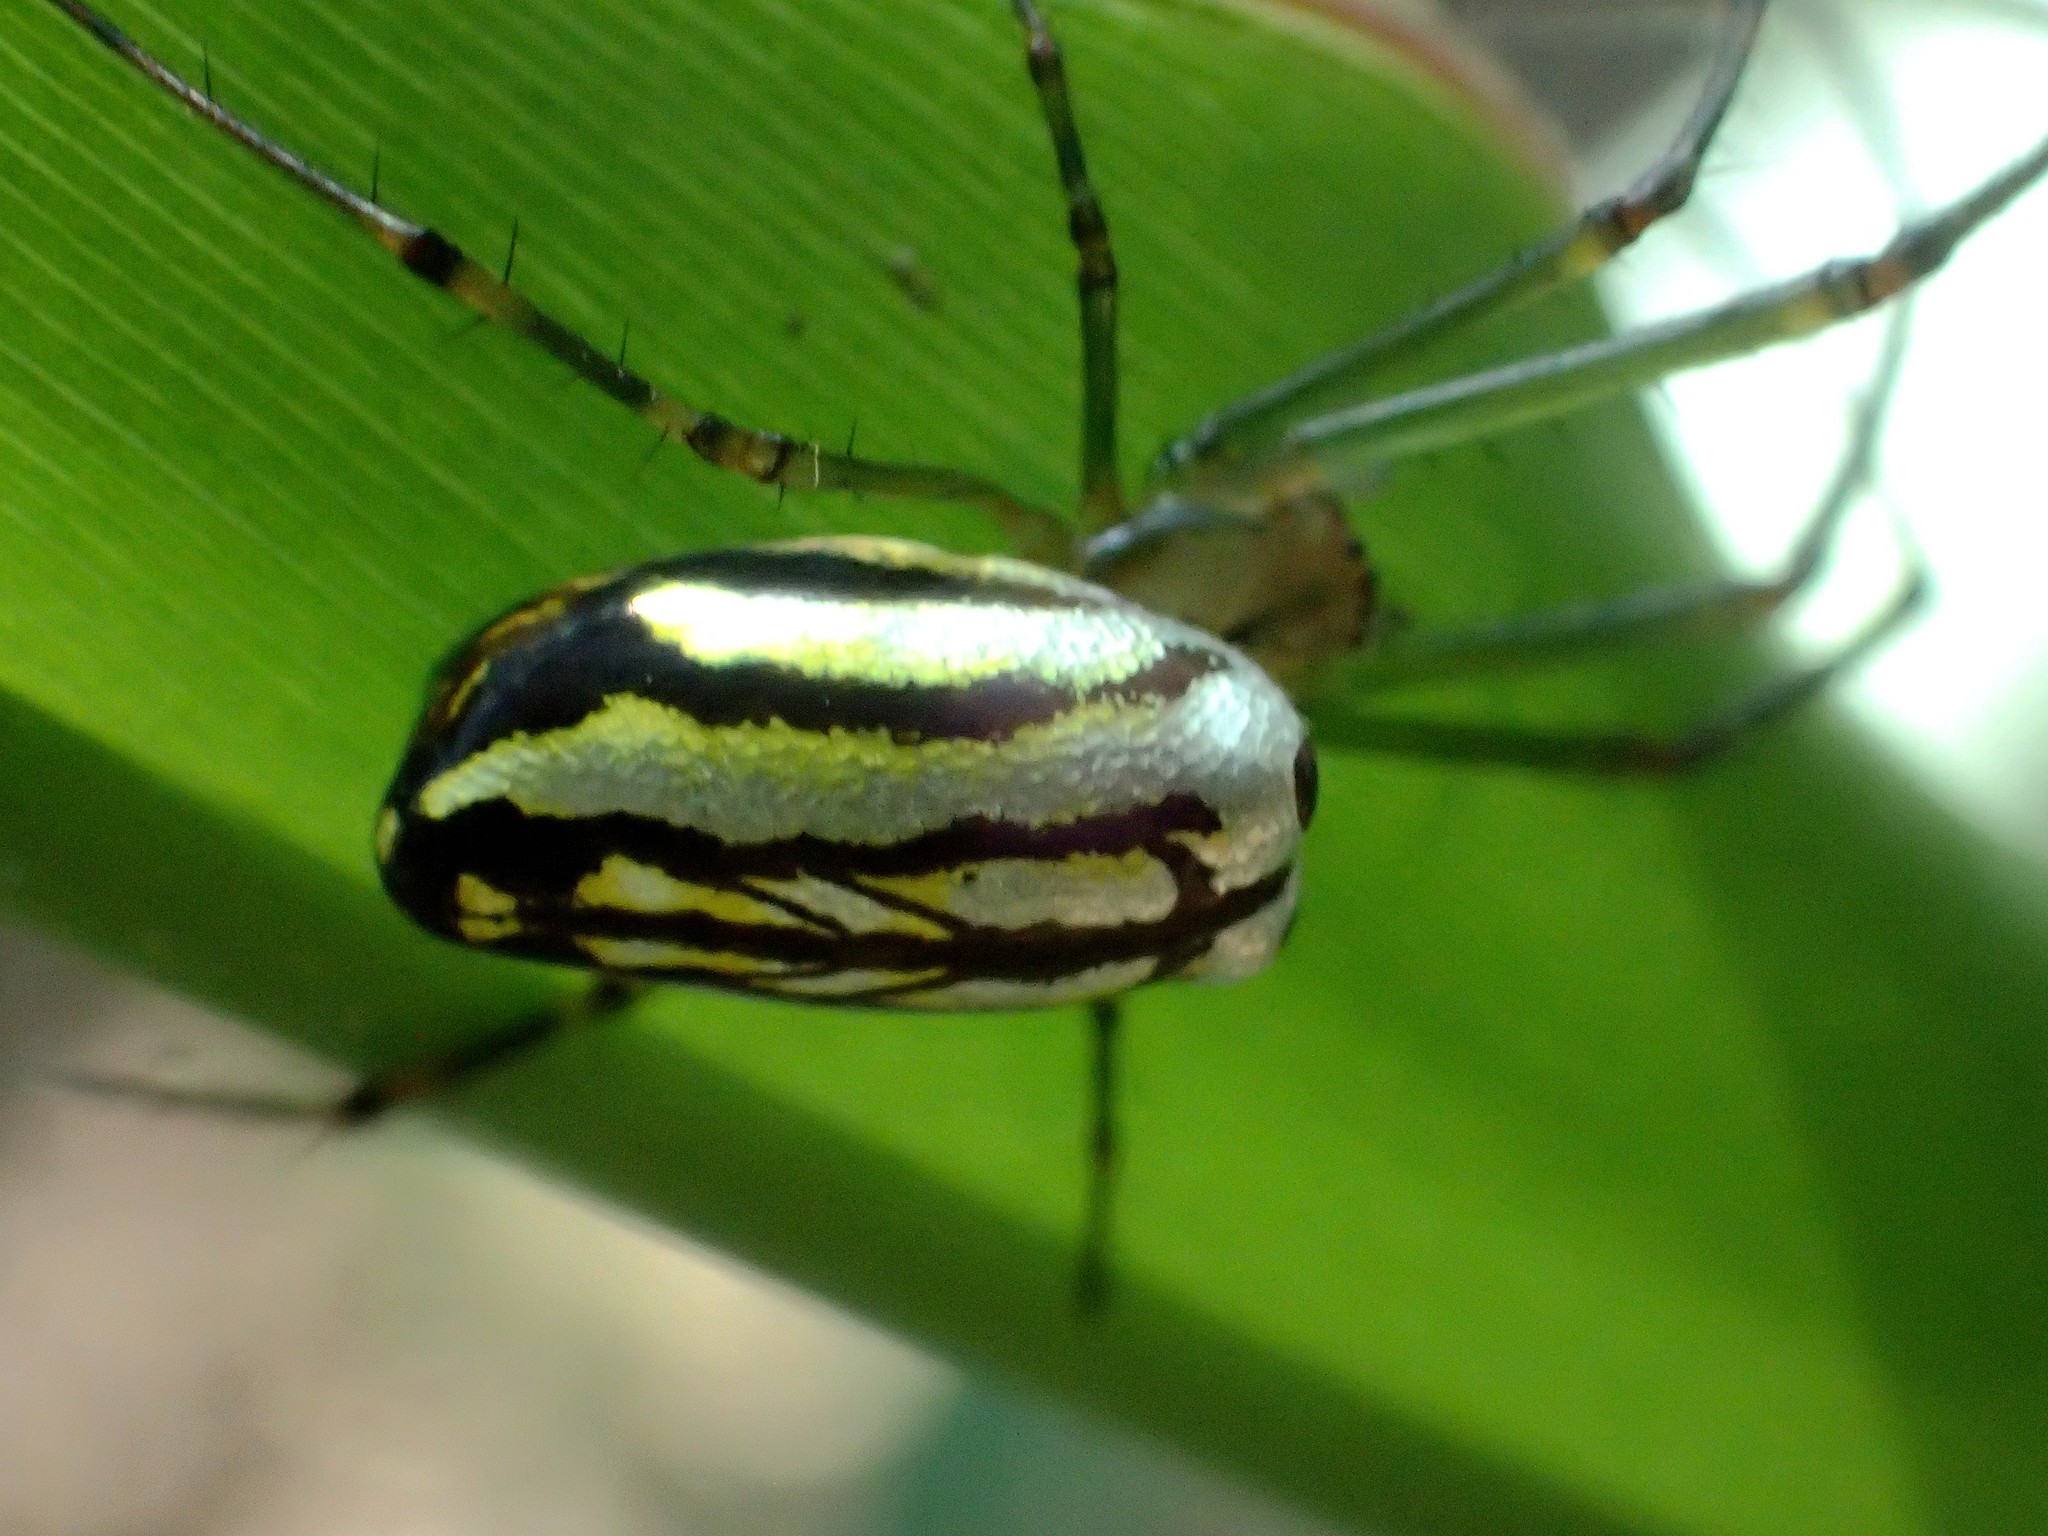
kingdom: Animalia
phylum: Arthropoda
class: Arachnida
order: Araneae
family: Tetragnathidae
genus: Leucauge
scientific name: Leucauge blanda
